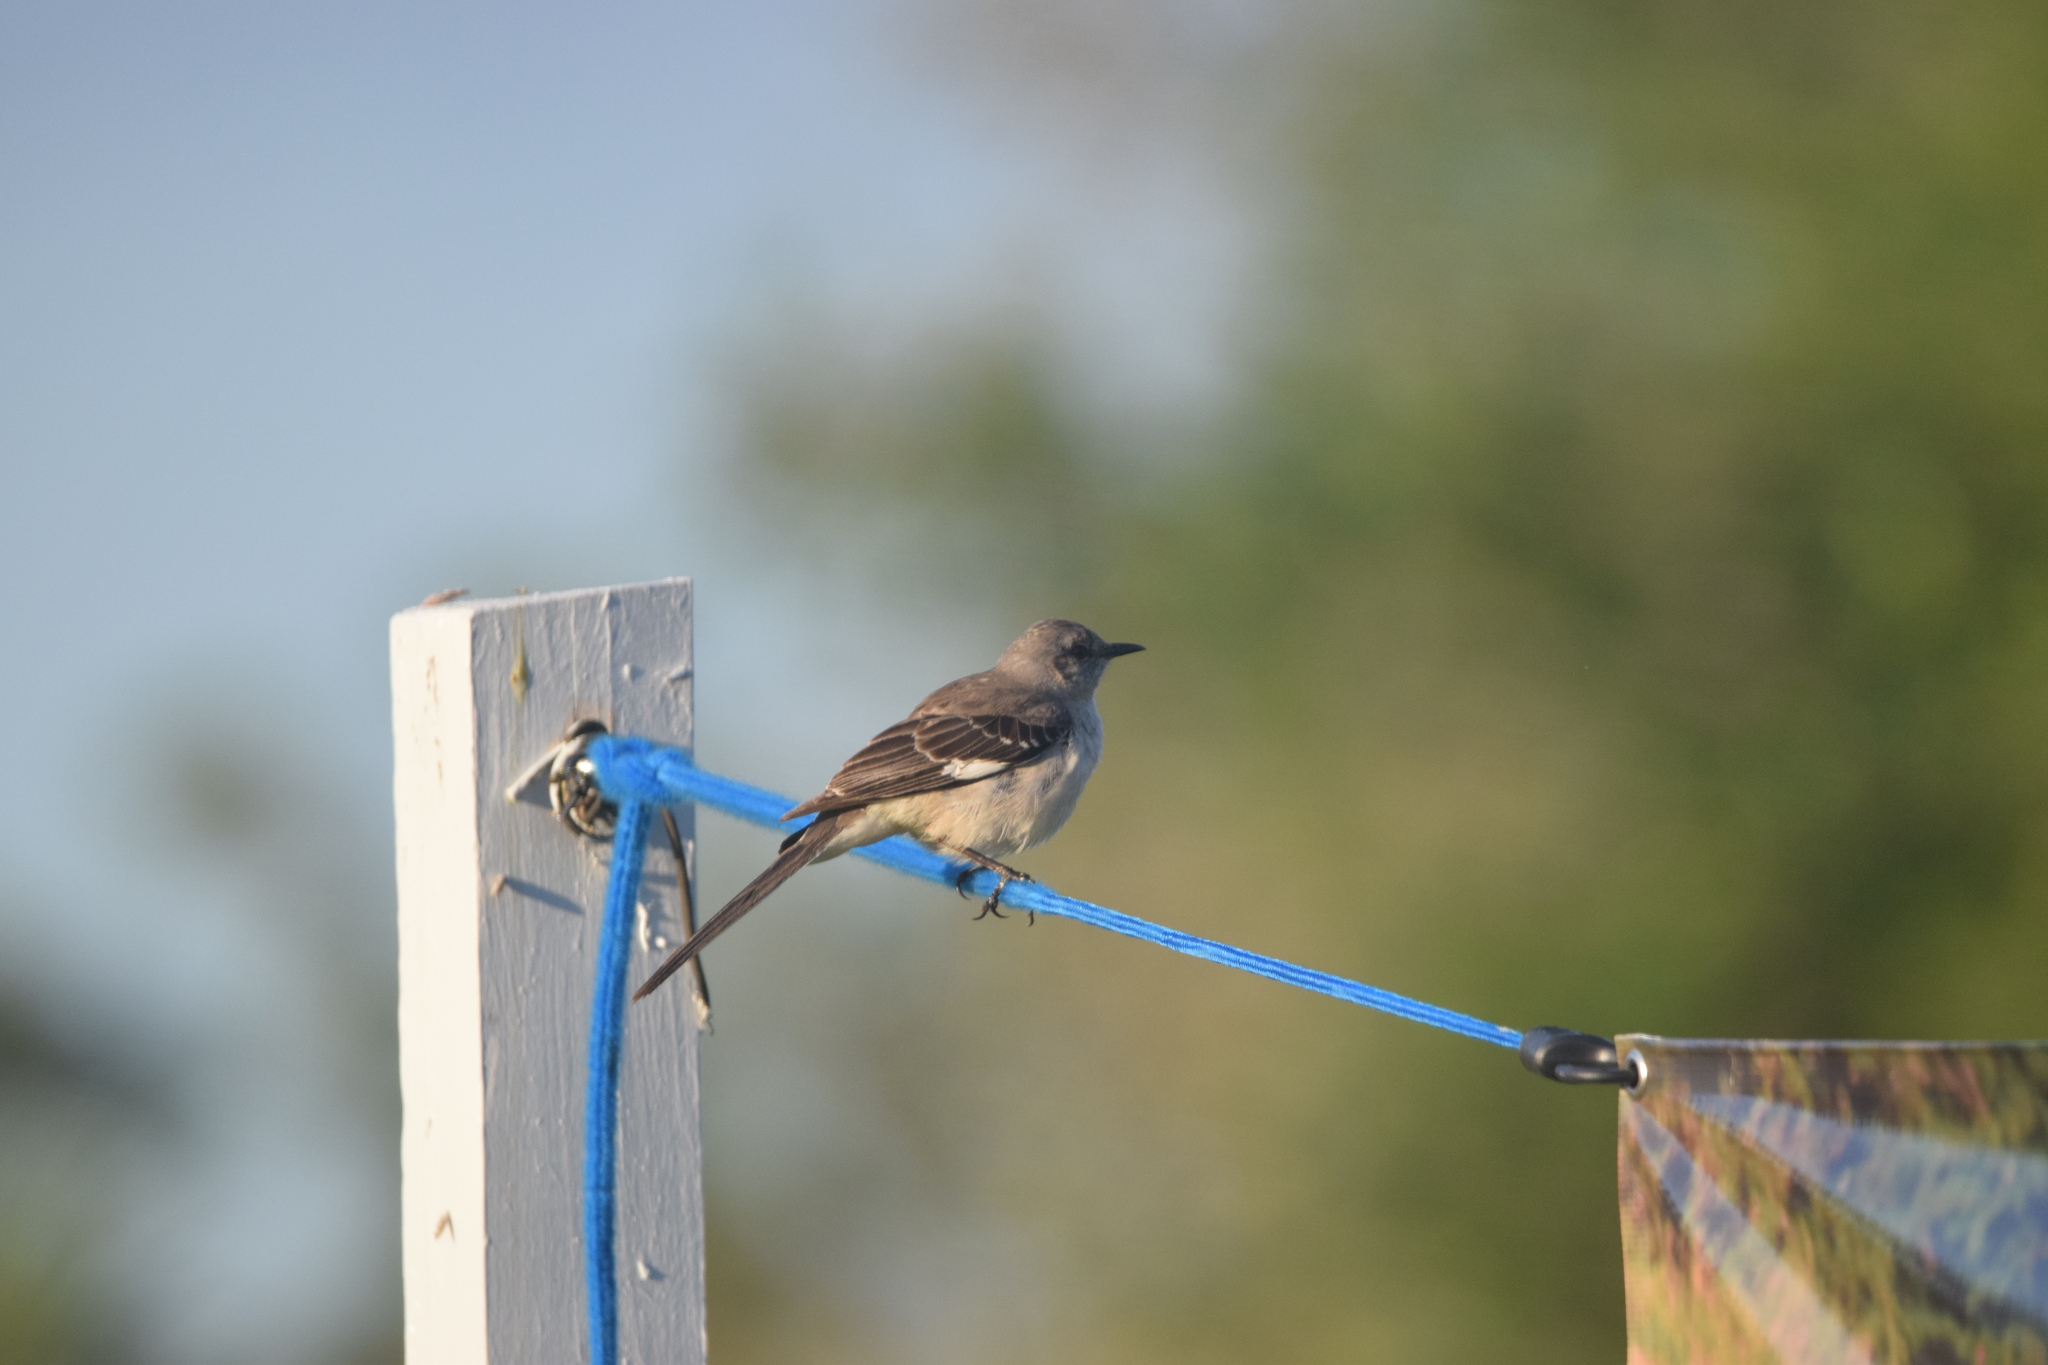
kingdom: Animalia
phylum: Chordata
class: Aves
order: Passeriformes
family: Mimidae
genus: Mimus
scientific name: Mimus polyglottos
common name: Northern mockingbird
